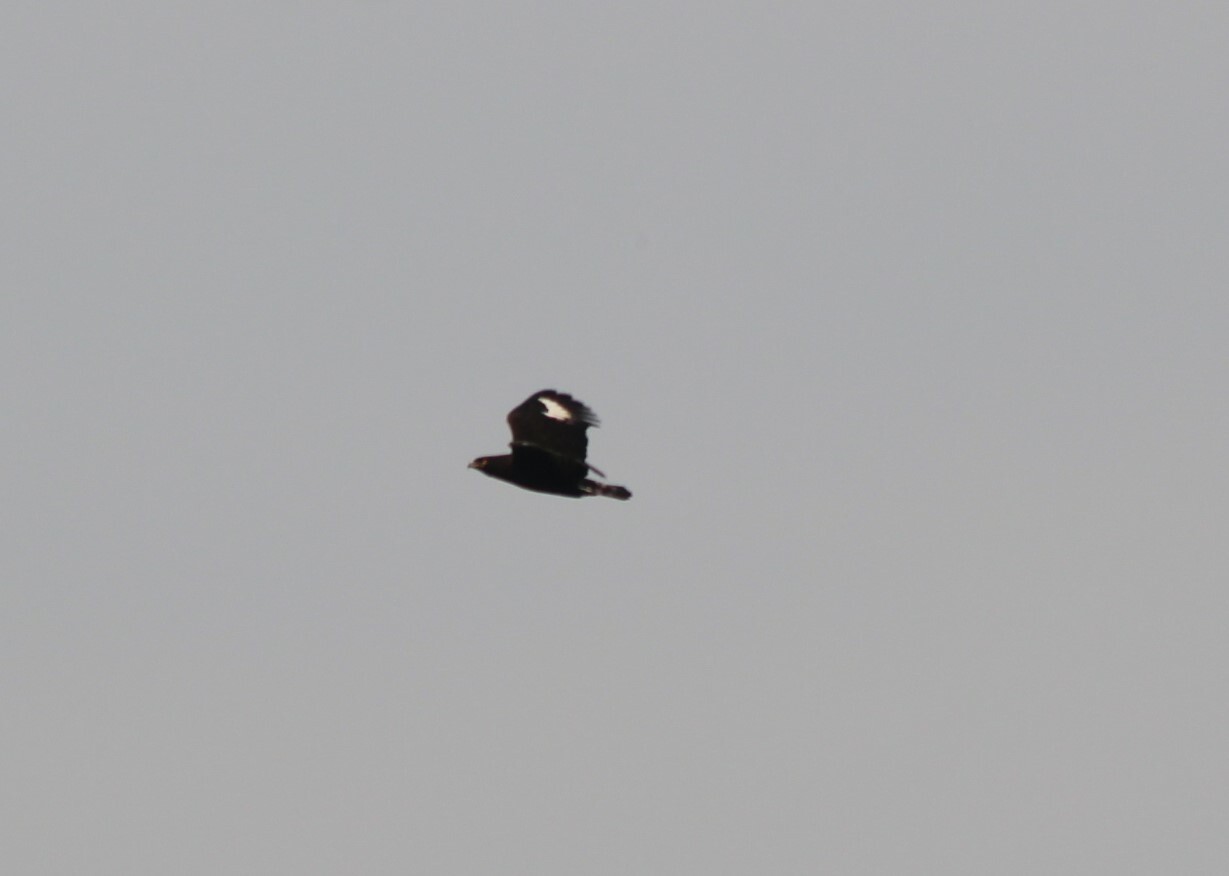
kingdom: Animalia
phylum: Chordata
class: Aves
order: Accipitriformes
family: Accipitridae
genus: Lophaetus
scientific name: Lophaetus occipitalis
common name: Long-crested eagle
